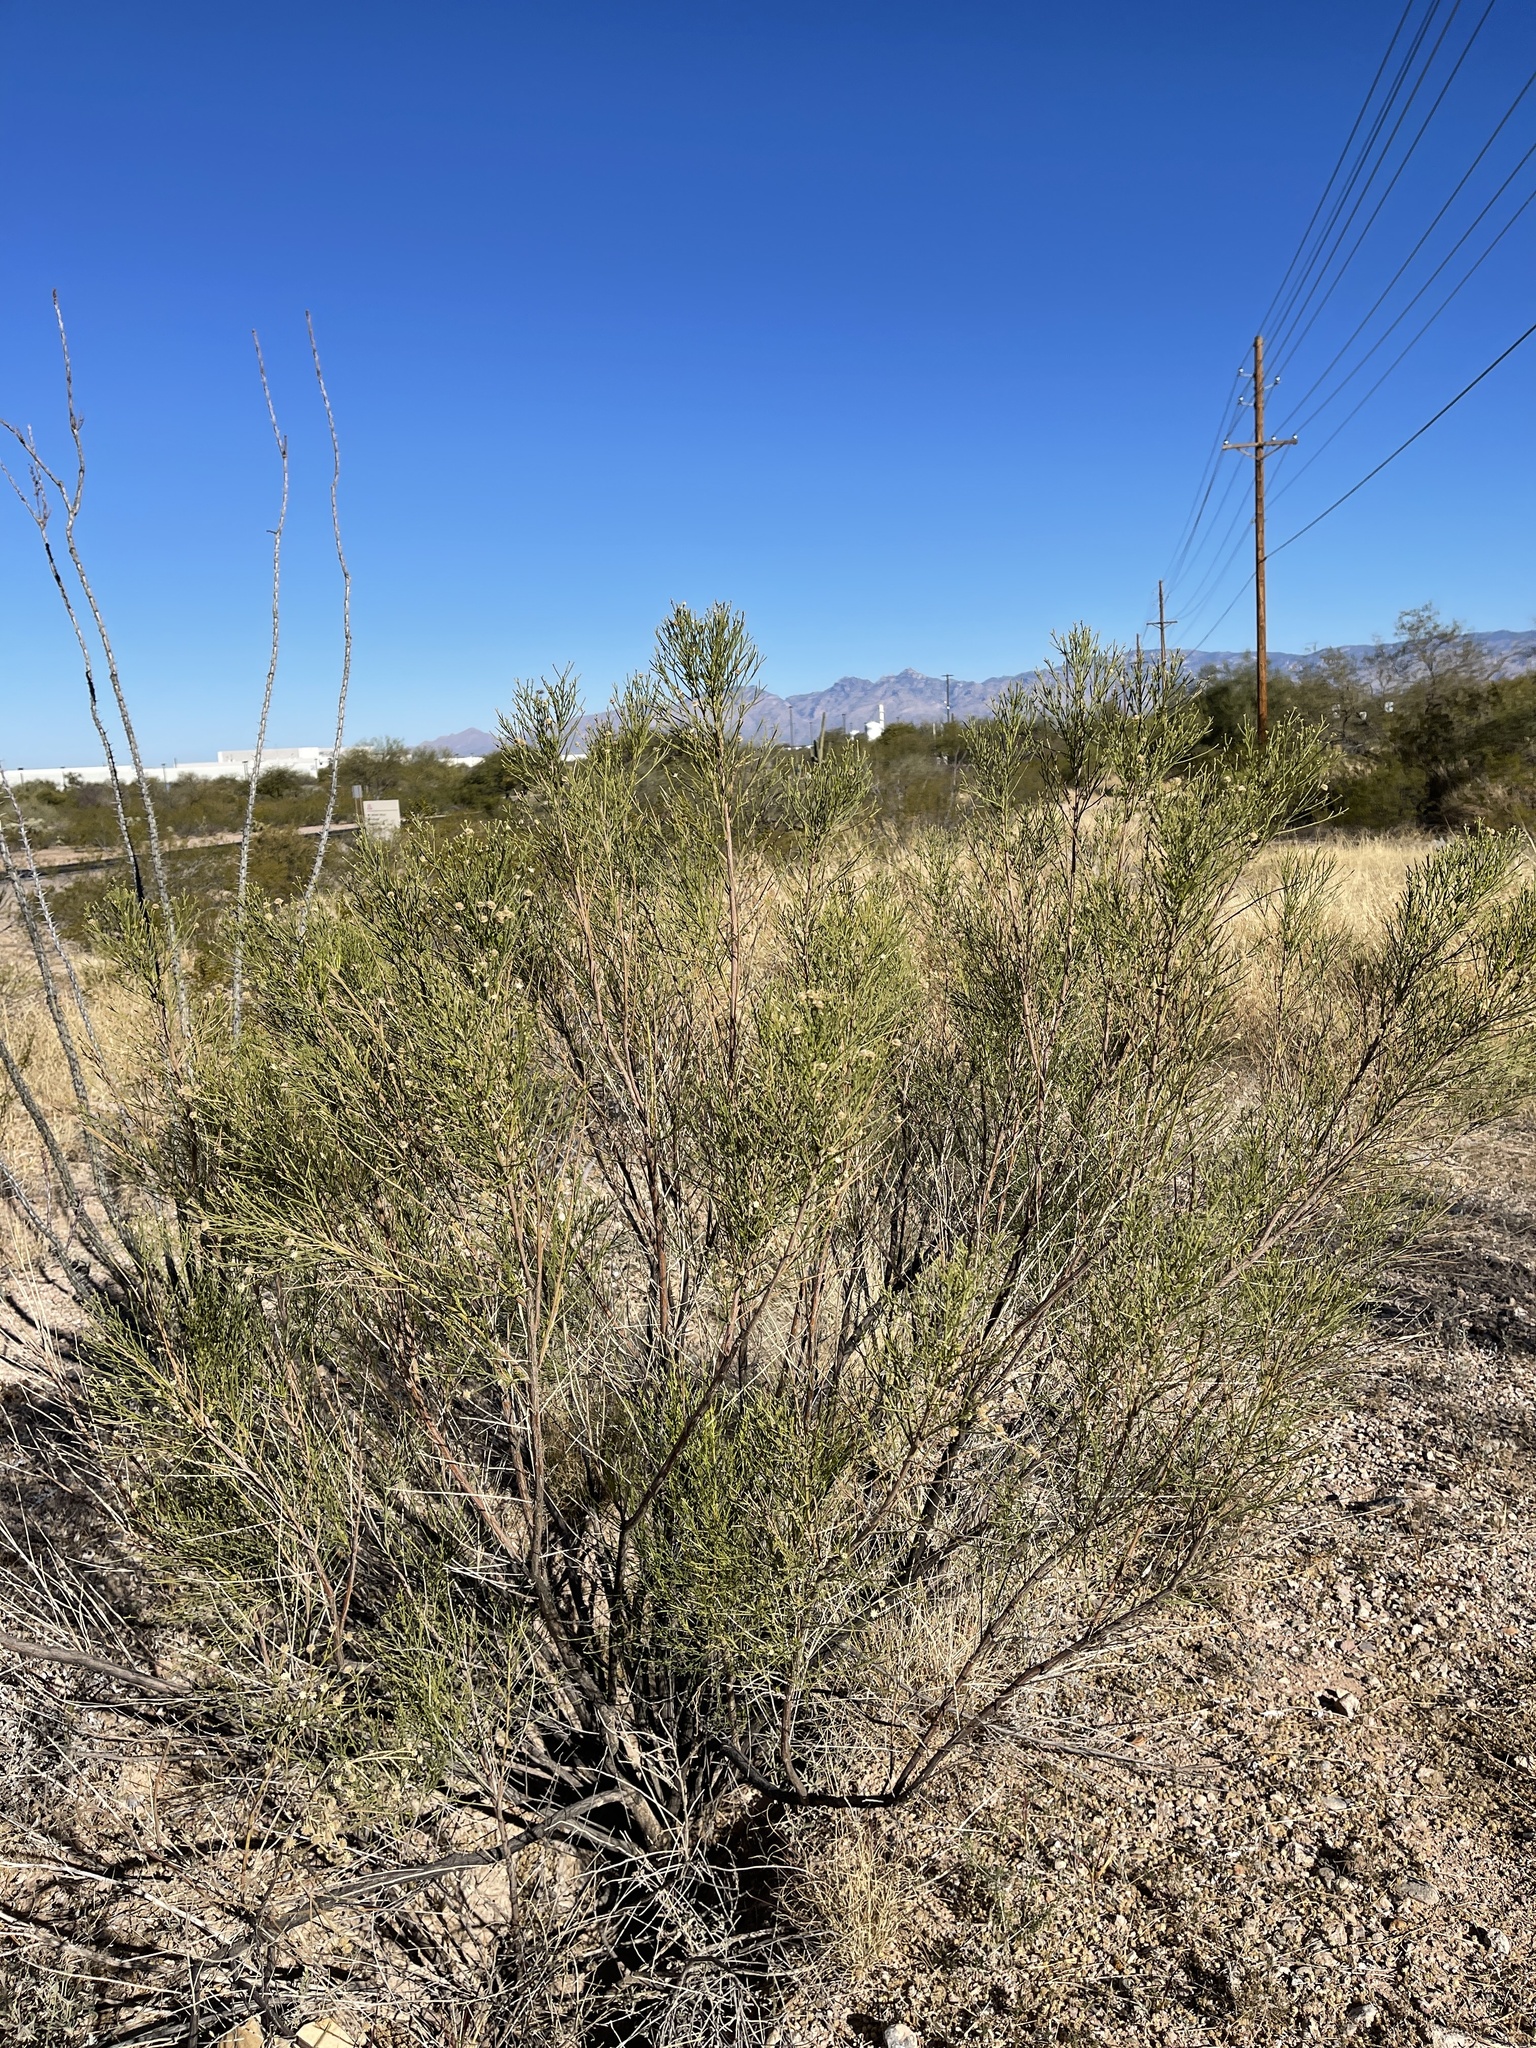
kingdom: Plantae
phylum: Tracheophyta
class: Magnoliopsida
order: Asterales
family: Asteraceae
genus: Baccharis
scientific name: Baccharis sarothroides
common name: Desert-broom
